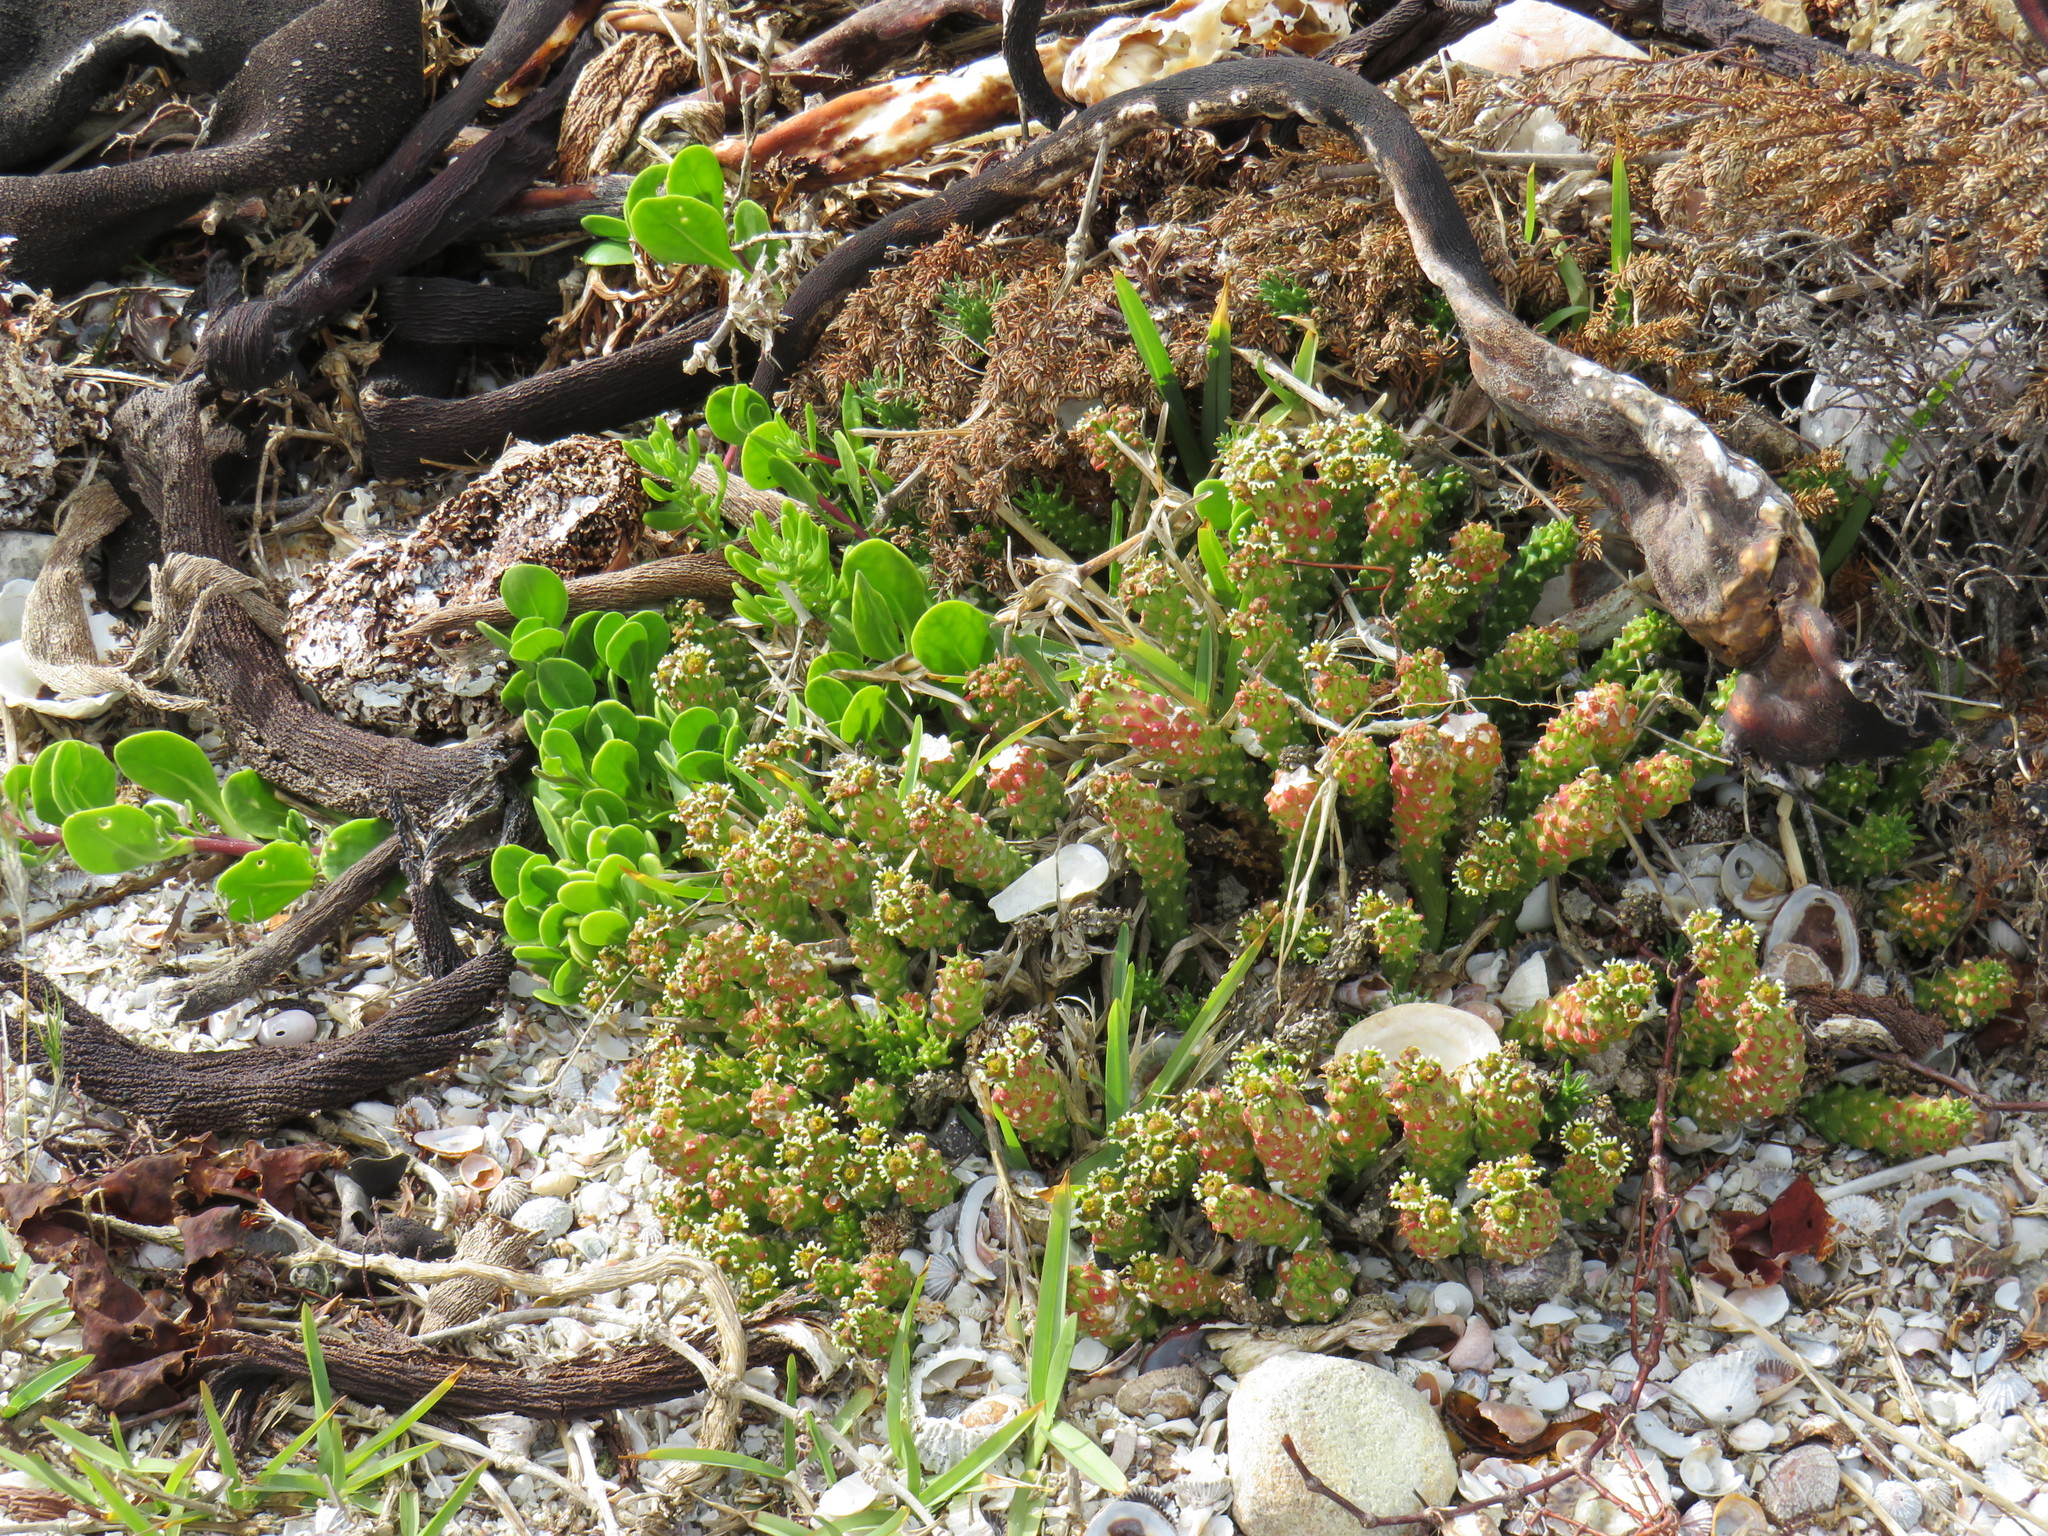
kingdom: Plantae
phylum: Tracheophyta
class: Magnoliopsida
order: Malpighiales
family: Euphorbiaceae
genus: Euphorbia
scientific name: Euphorbia caput-medusae
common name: Medusa's-head
